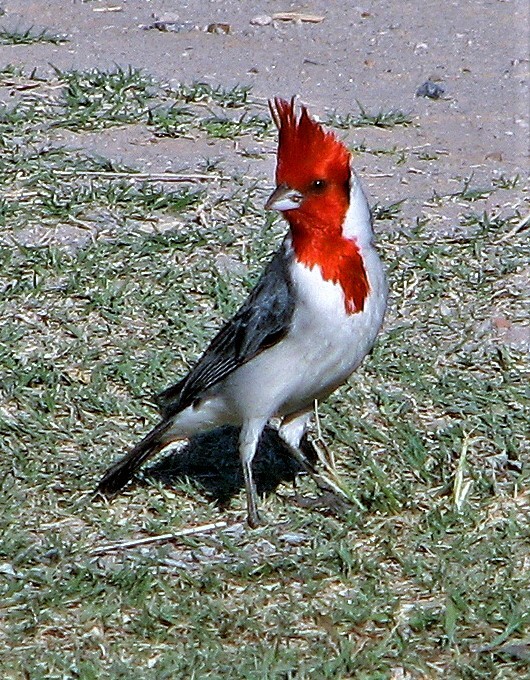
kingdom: Animalia
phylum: Chordata
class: Aves
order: Passeriformes
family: Thraupidae
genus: Paroaria
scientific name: Paroaria coronata
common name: Red-crested cardinal
